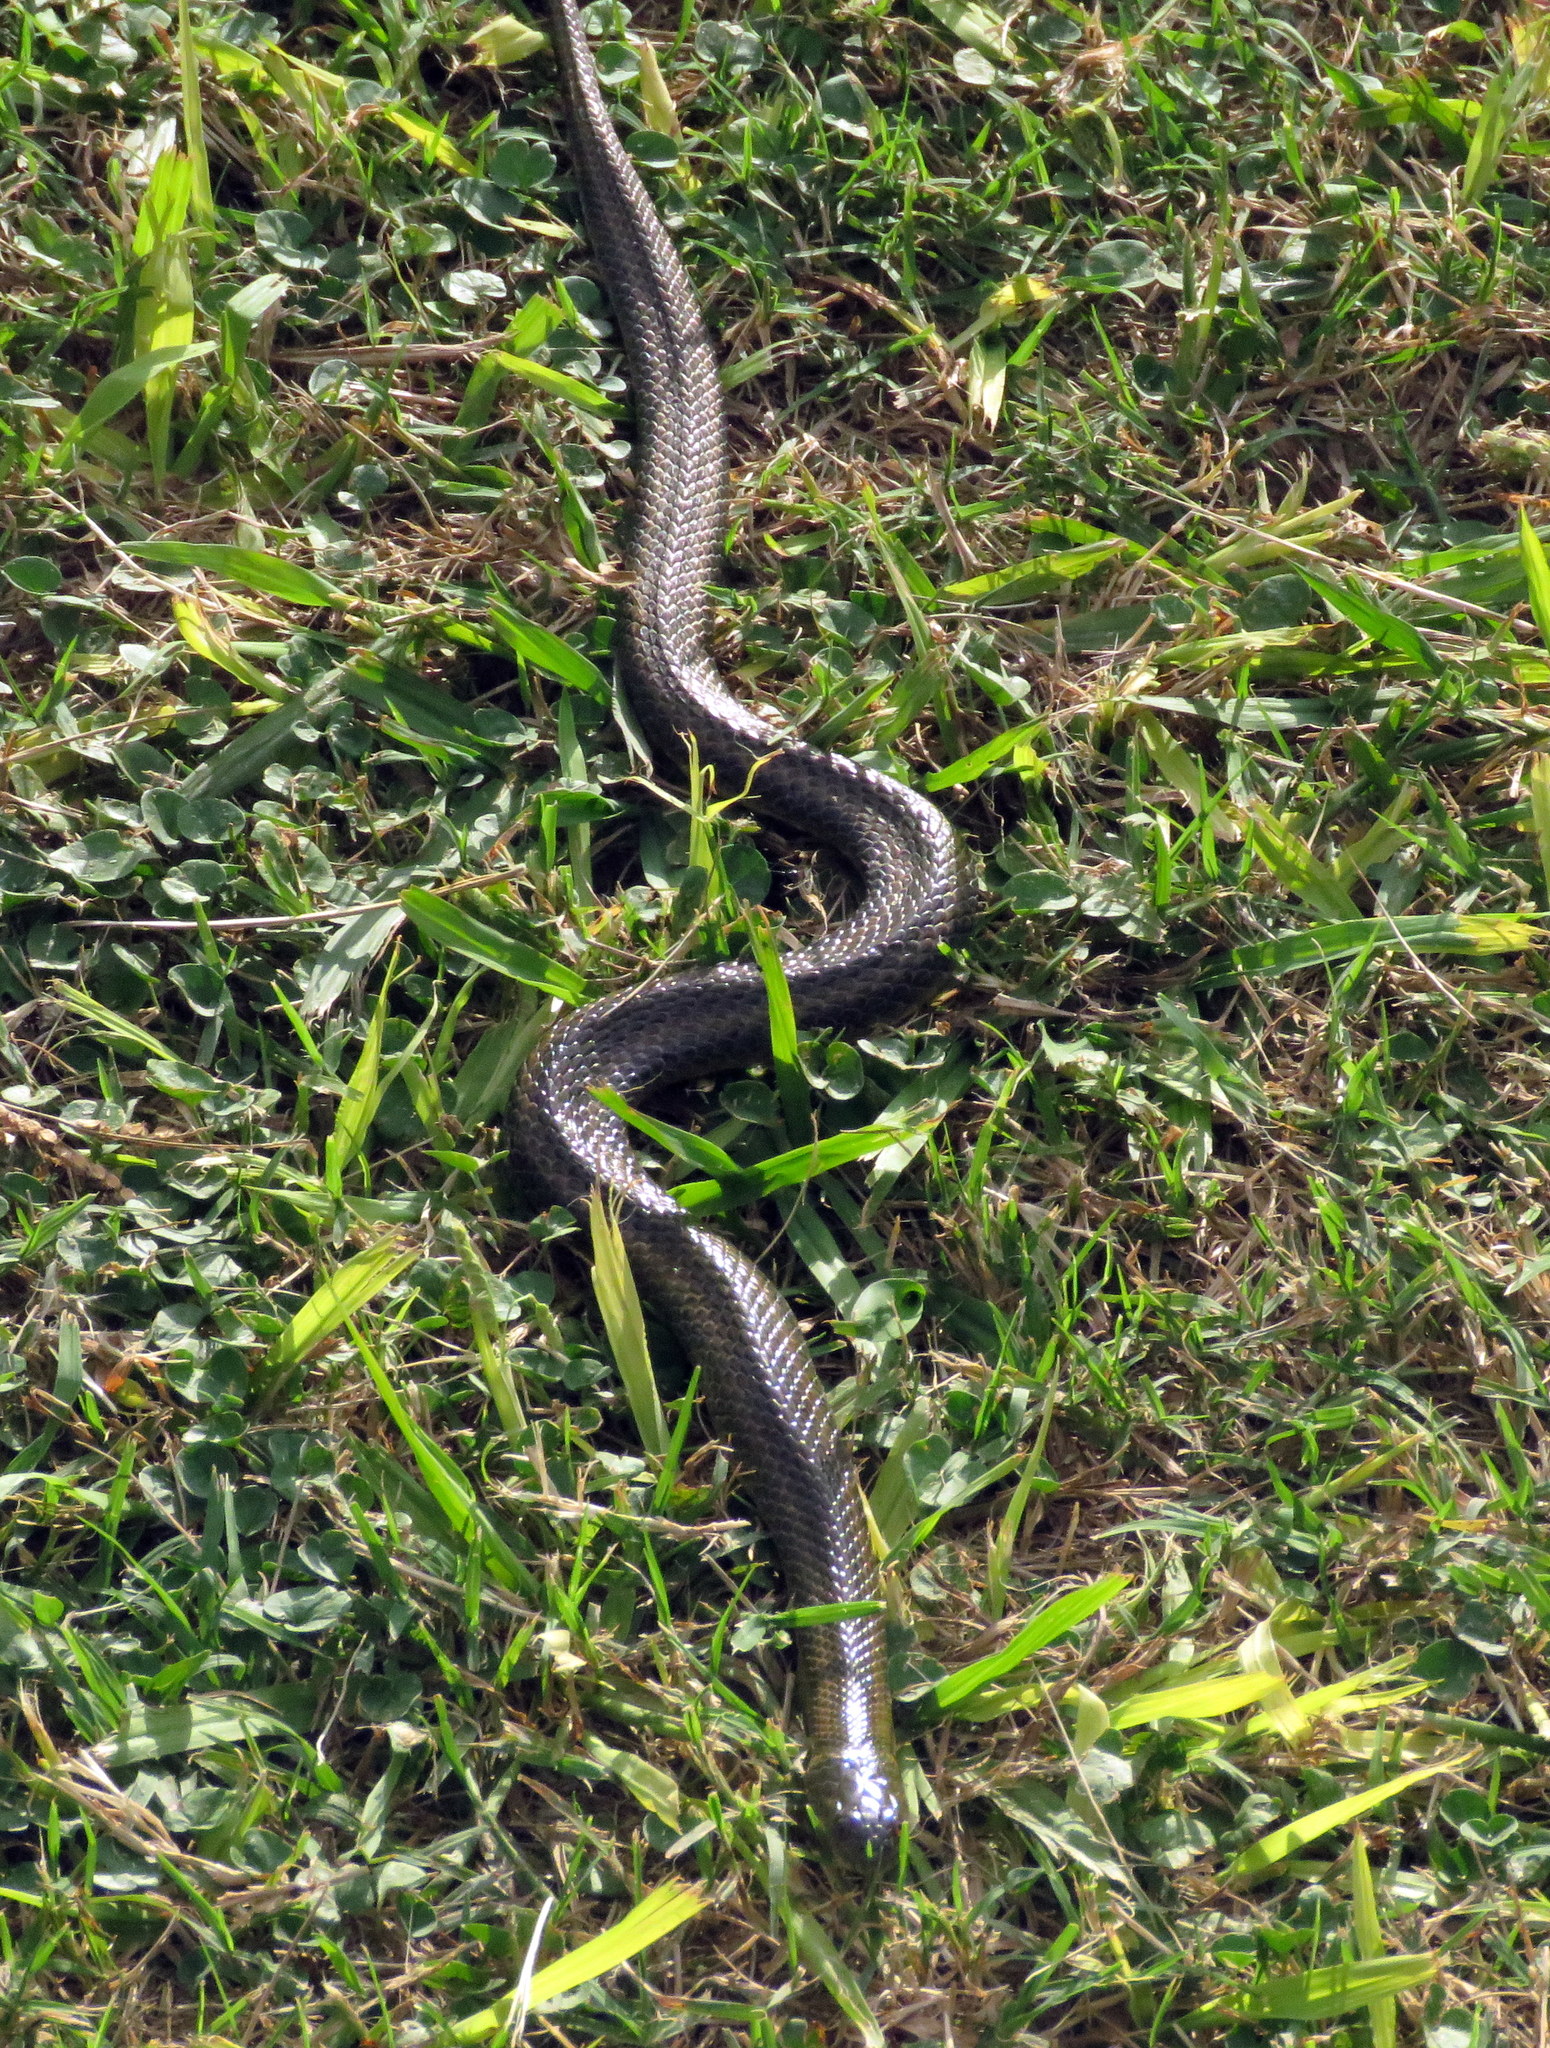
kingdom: Animalia
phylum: Chordata
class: Squamata
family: Colubridae
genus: Helicops
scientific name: Helicops infrataeniatus
